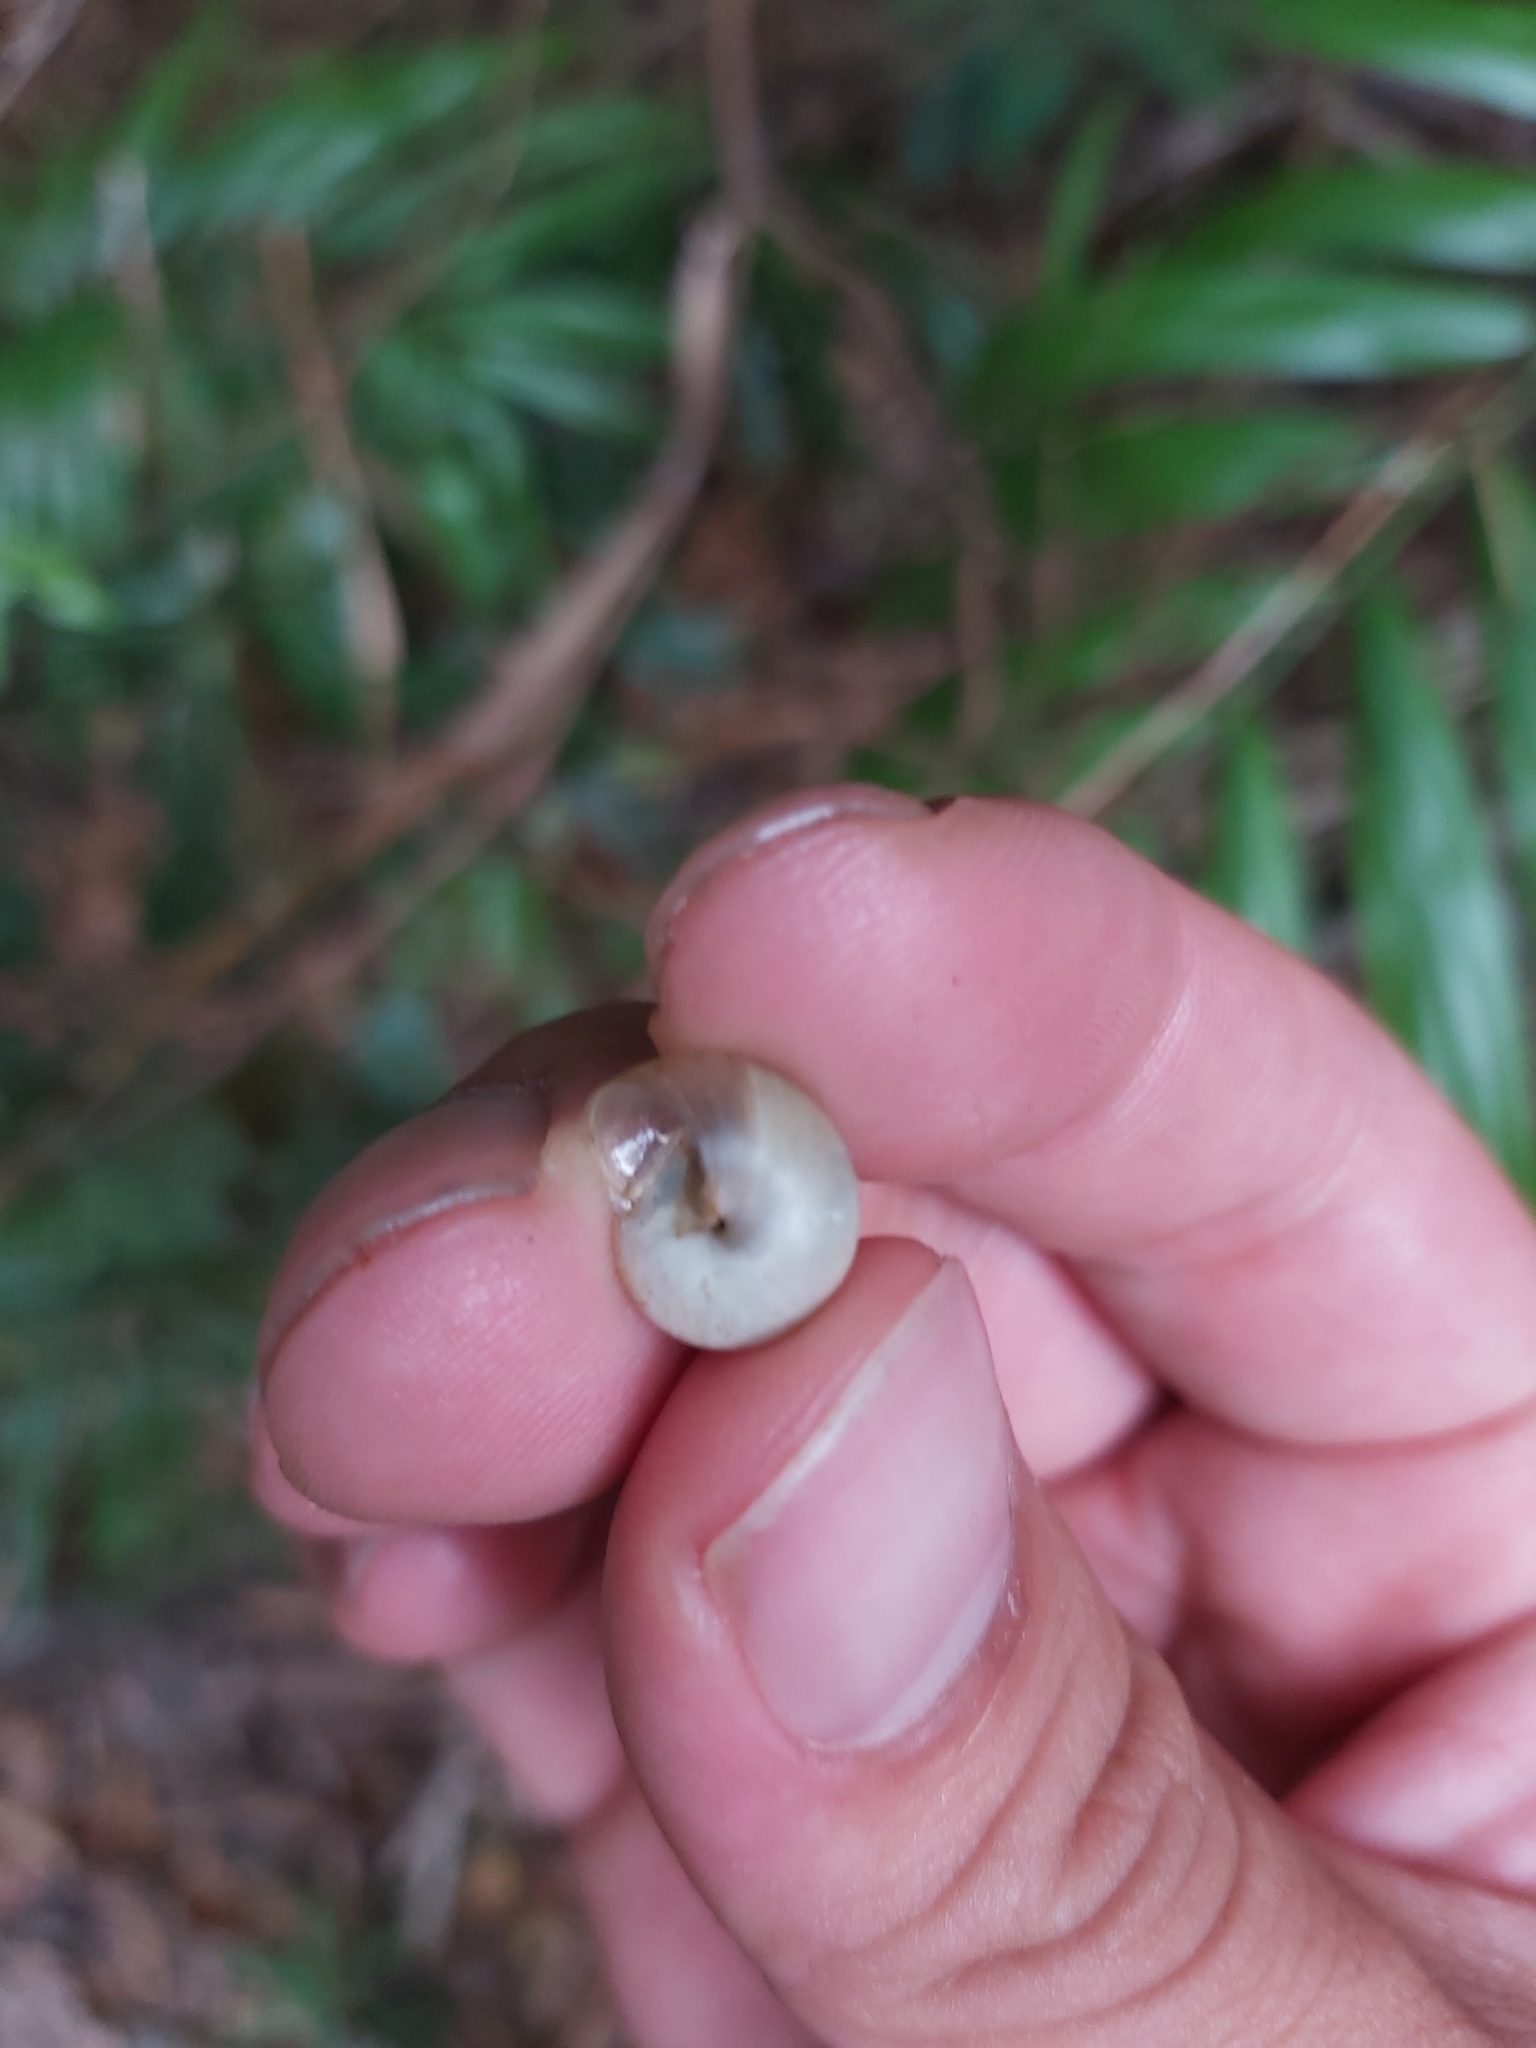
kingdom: Animalia
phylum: Mollusca
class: Gastropoda
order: Architaenioglossa
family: Cyclophoridae
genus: Leptopoma
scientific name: Leptopoma perlucidum
